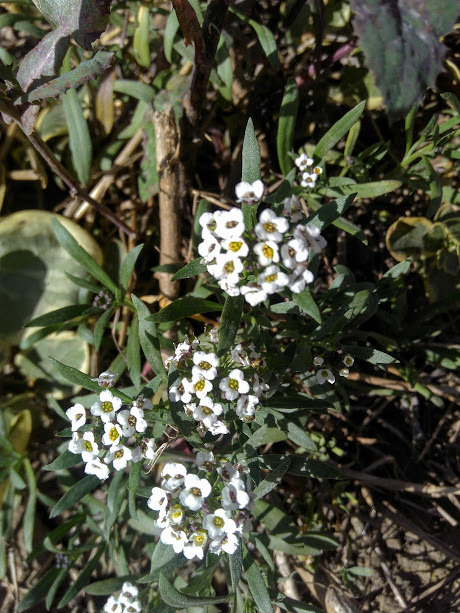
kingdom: Plantae
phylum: Tracheophyta
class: Magnoliopsida
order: Brassicales
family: Brassicaceae
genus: Lobularia
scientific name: Lobularia maritima
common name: Sweet alison
